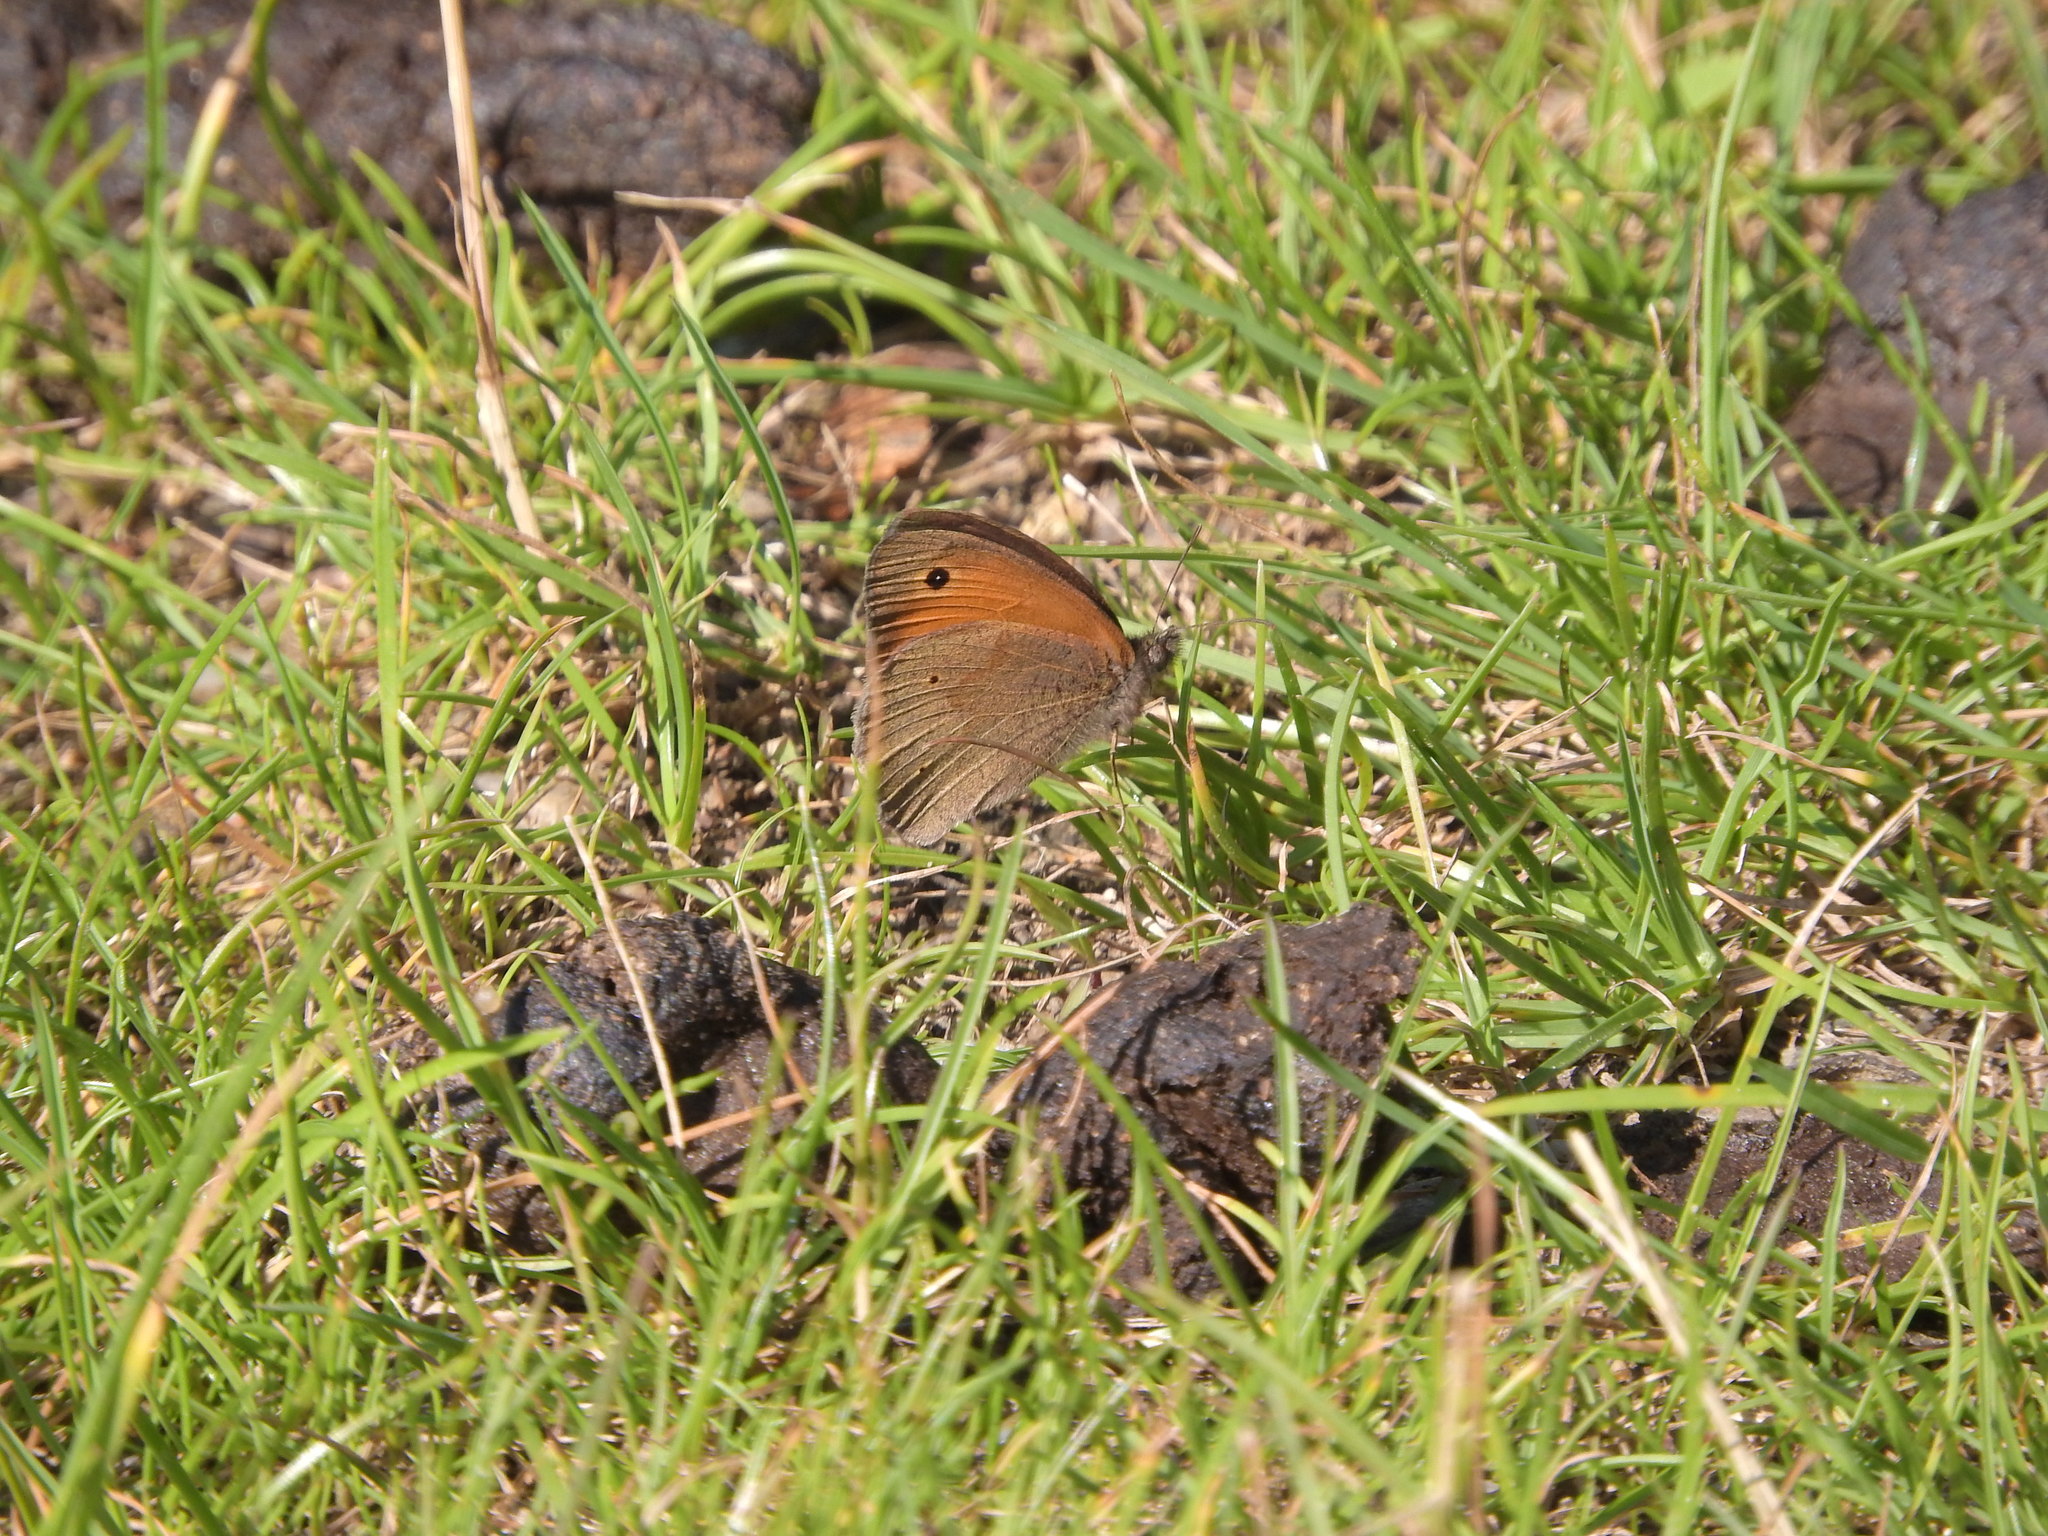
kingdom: Animalia
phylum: Arthropoda
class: Insecta
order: Lepidoptera
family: Nymphalidae
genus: Maniola
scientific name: Maniola jurtina
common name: Meadow brown
